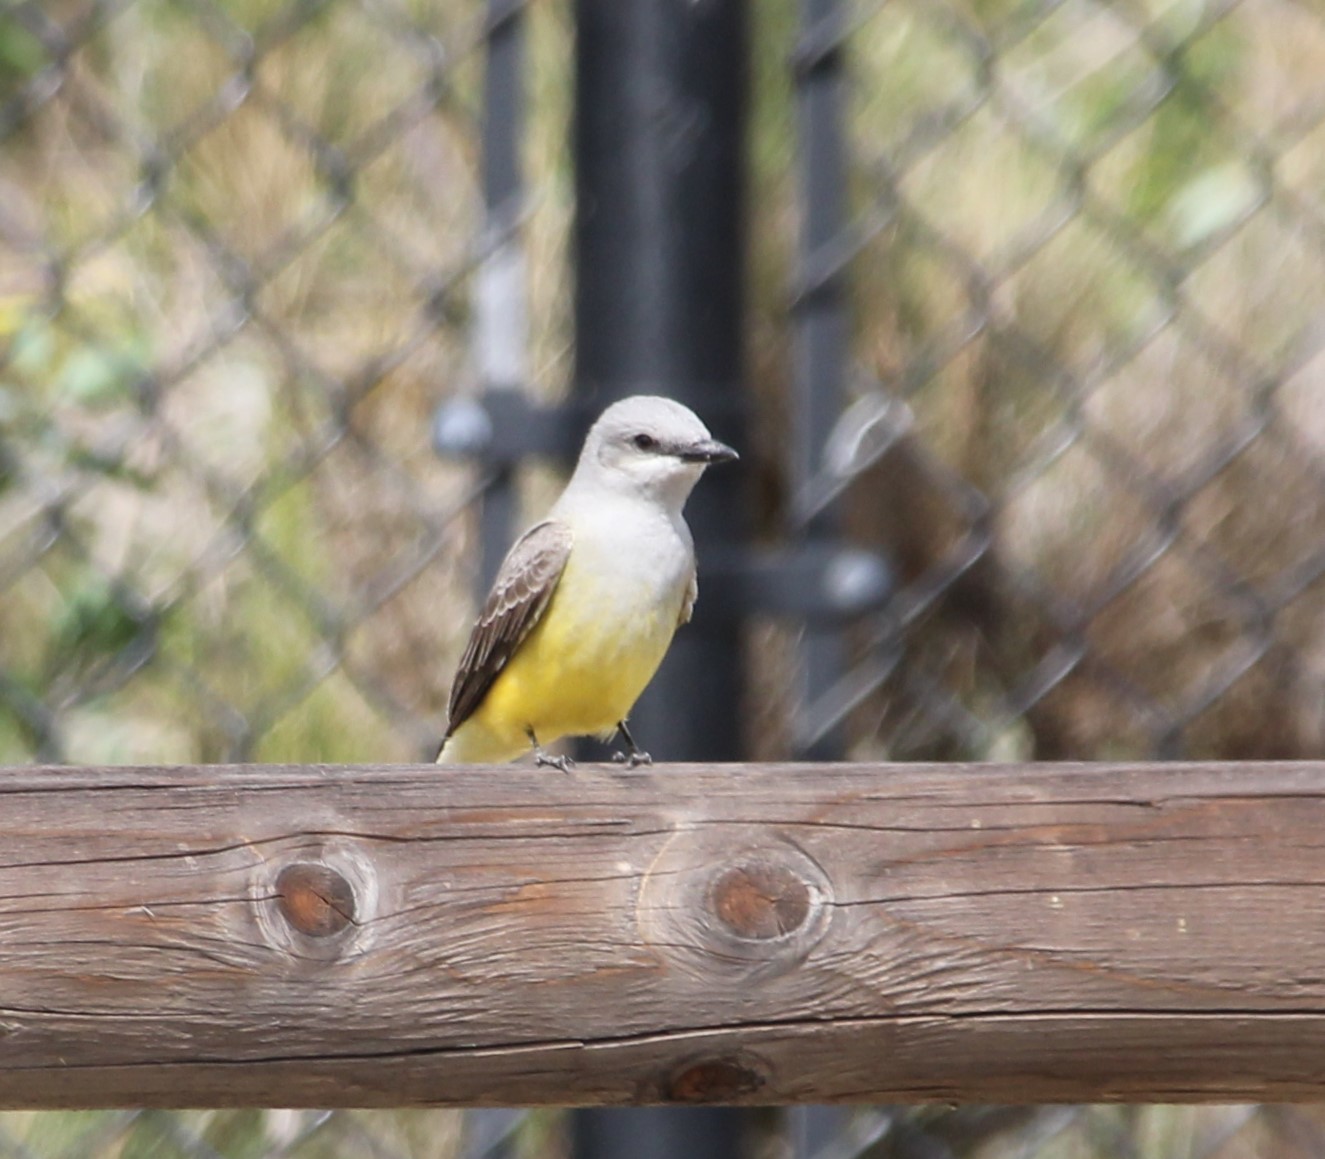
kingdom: Animalia
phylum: Chordata
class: Aves
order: Passeriformes
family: Tyrannidae
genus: Tyrannus
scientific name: Tyrannus verticalis
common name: Western kingbird
